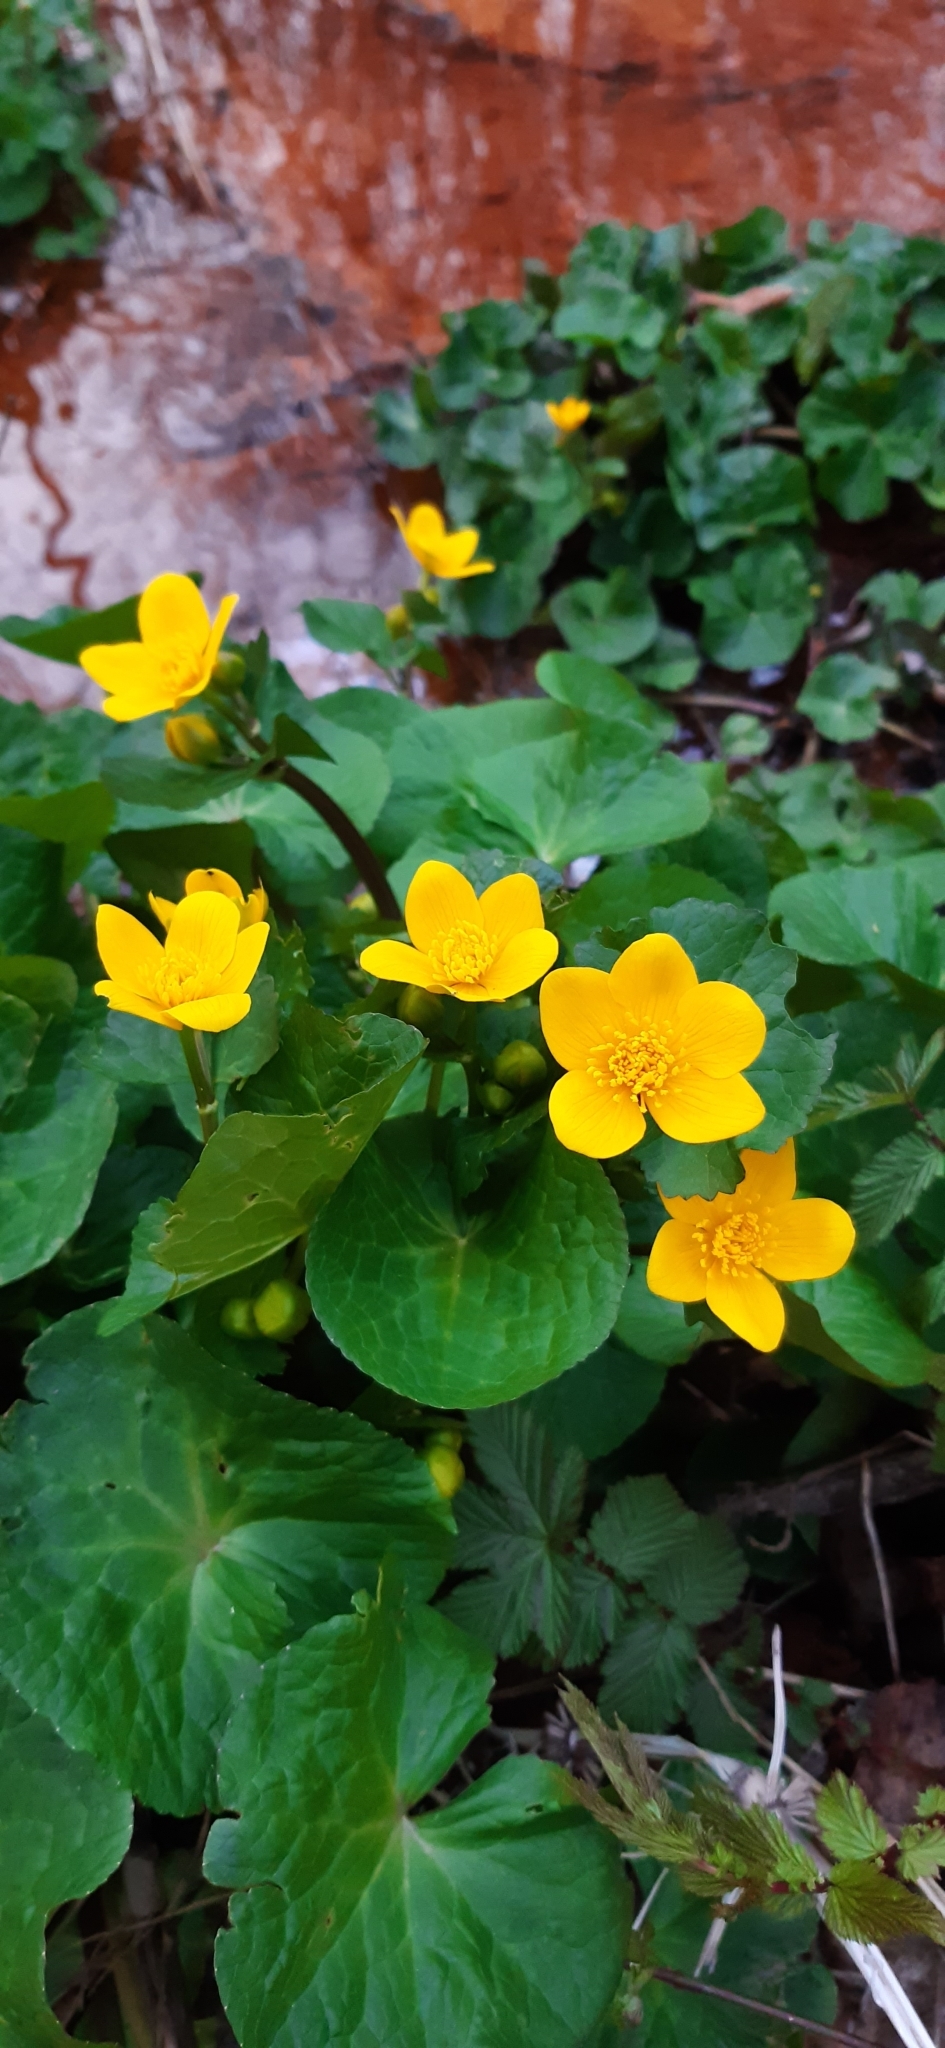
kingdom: Plantae
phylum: Tracheophyta
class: Magnoliopsida
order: Ranunculales
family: Ranunculaceae
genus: Caltha
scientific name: Caltha palustris
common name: Marsh marigold
